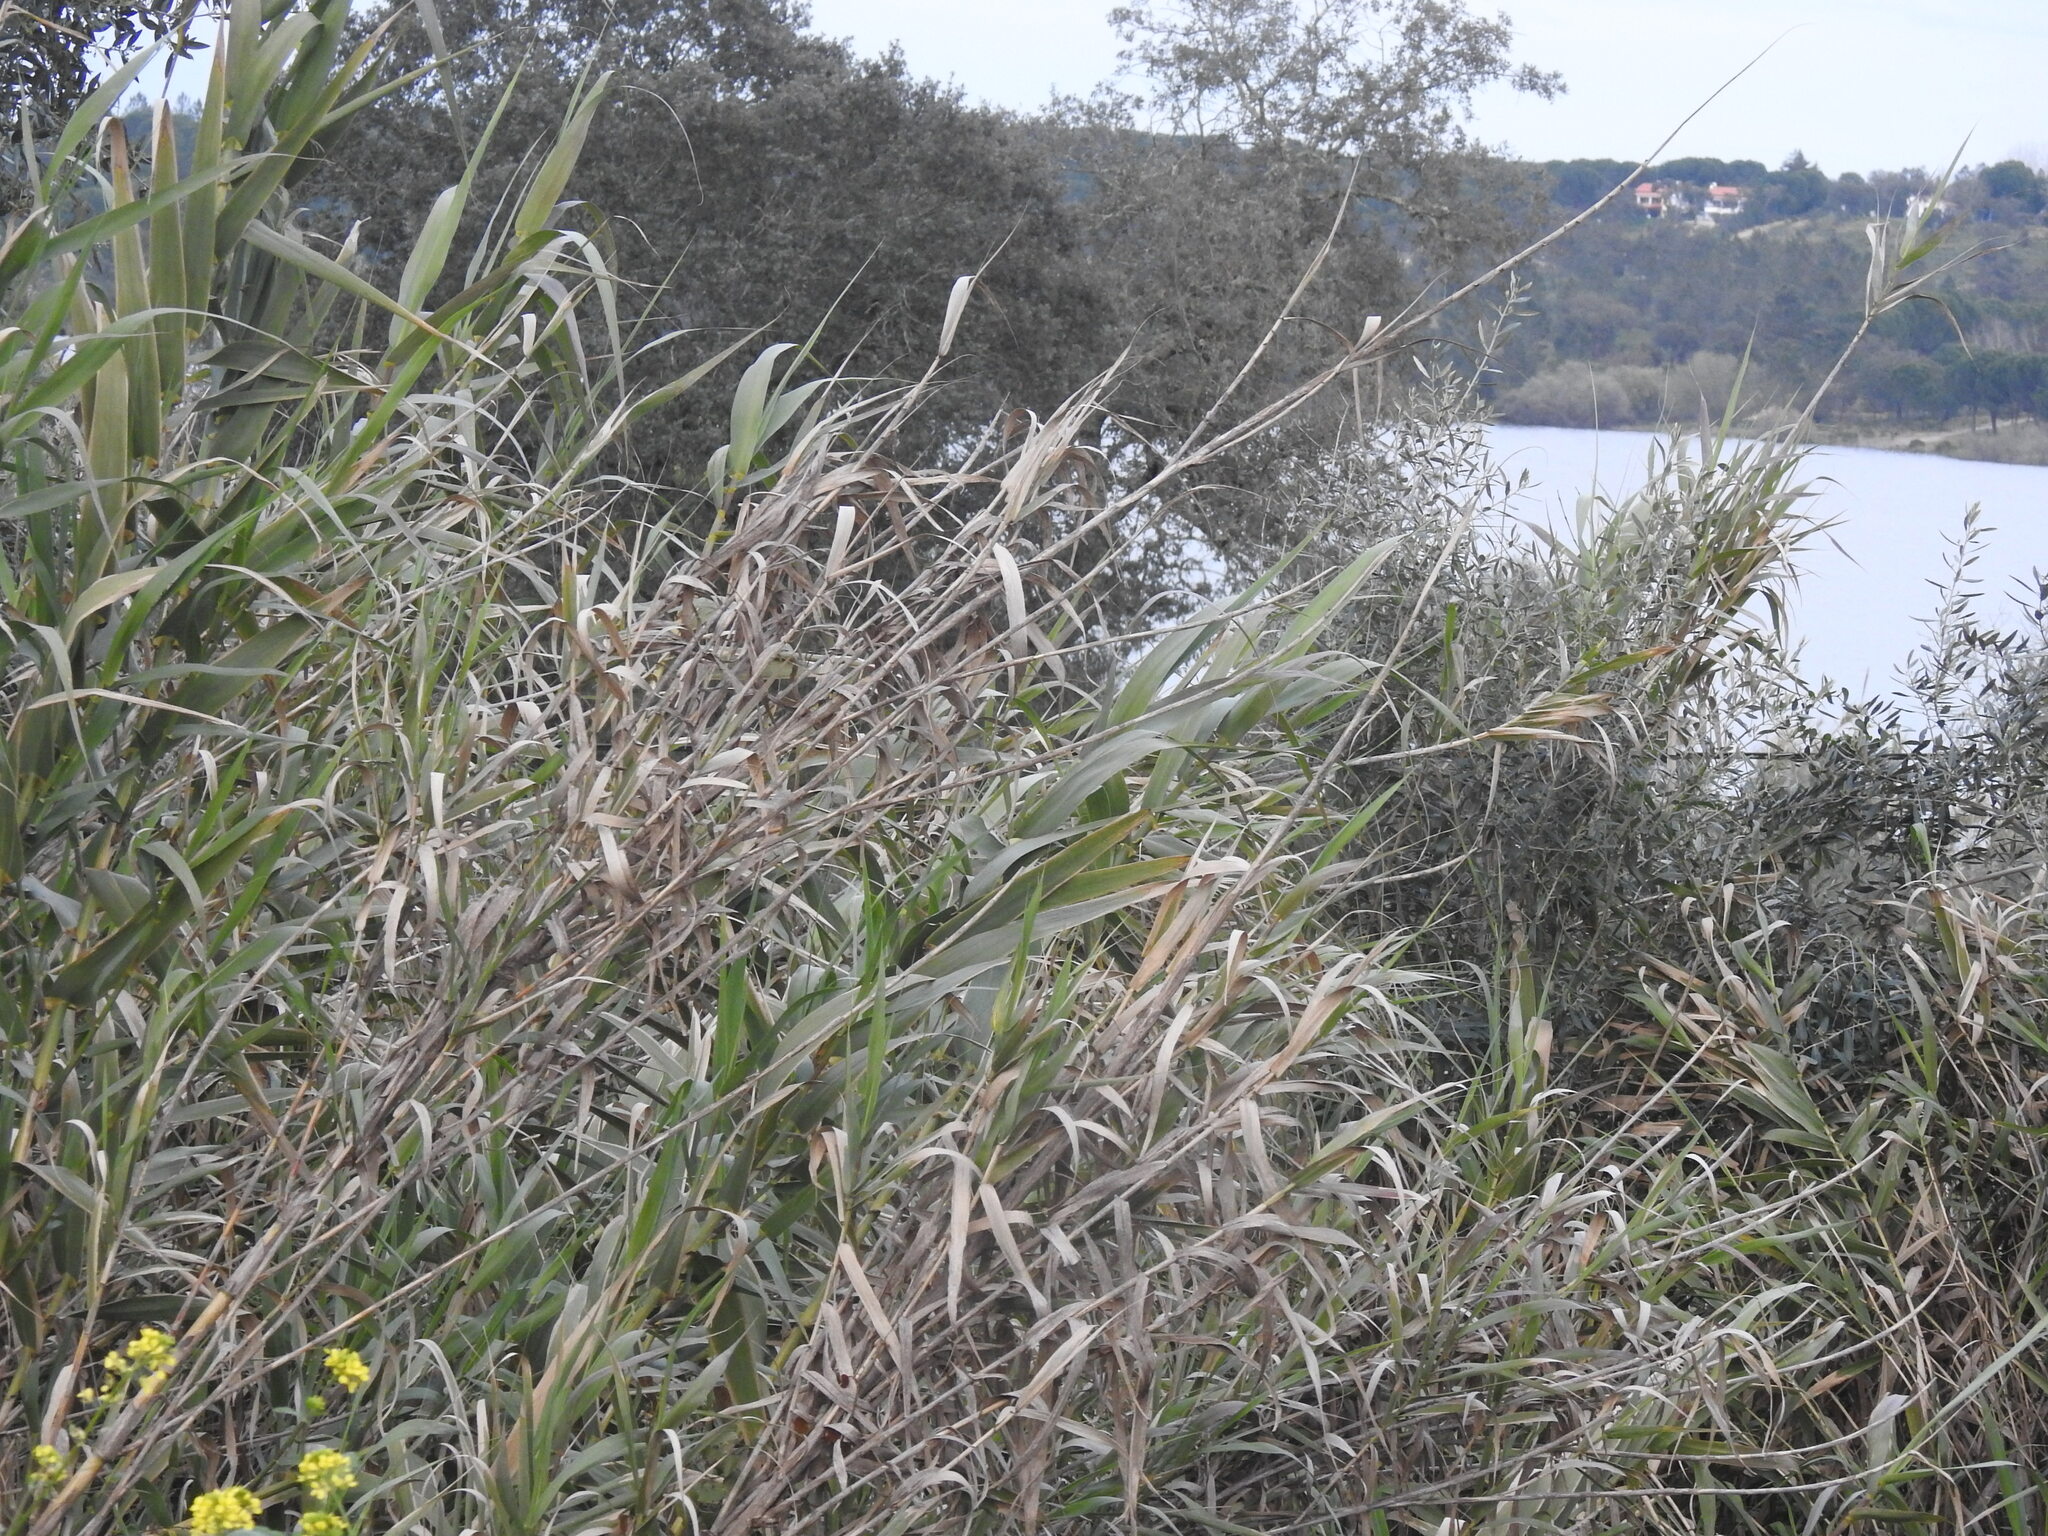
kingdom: Plantae
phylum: Tracheophyta
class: Liliopsida
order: Poales
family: Poaceae
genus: Arundo
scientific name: Arundo donax
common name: Giant reed
